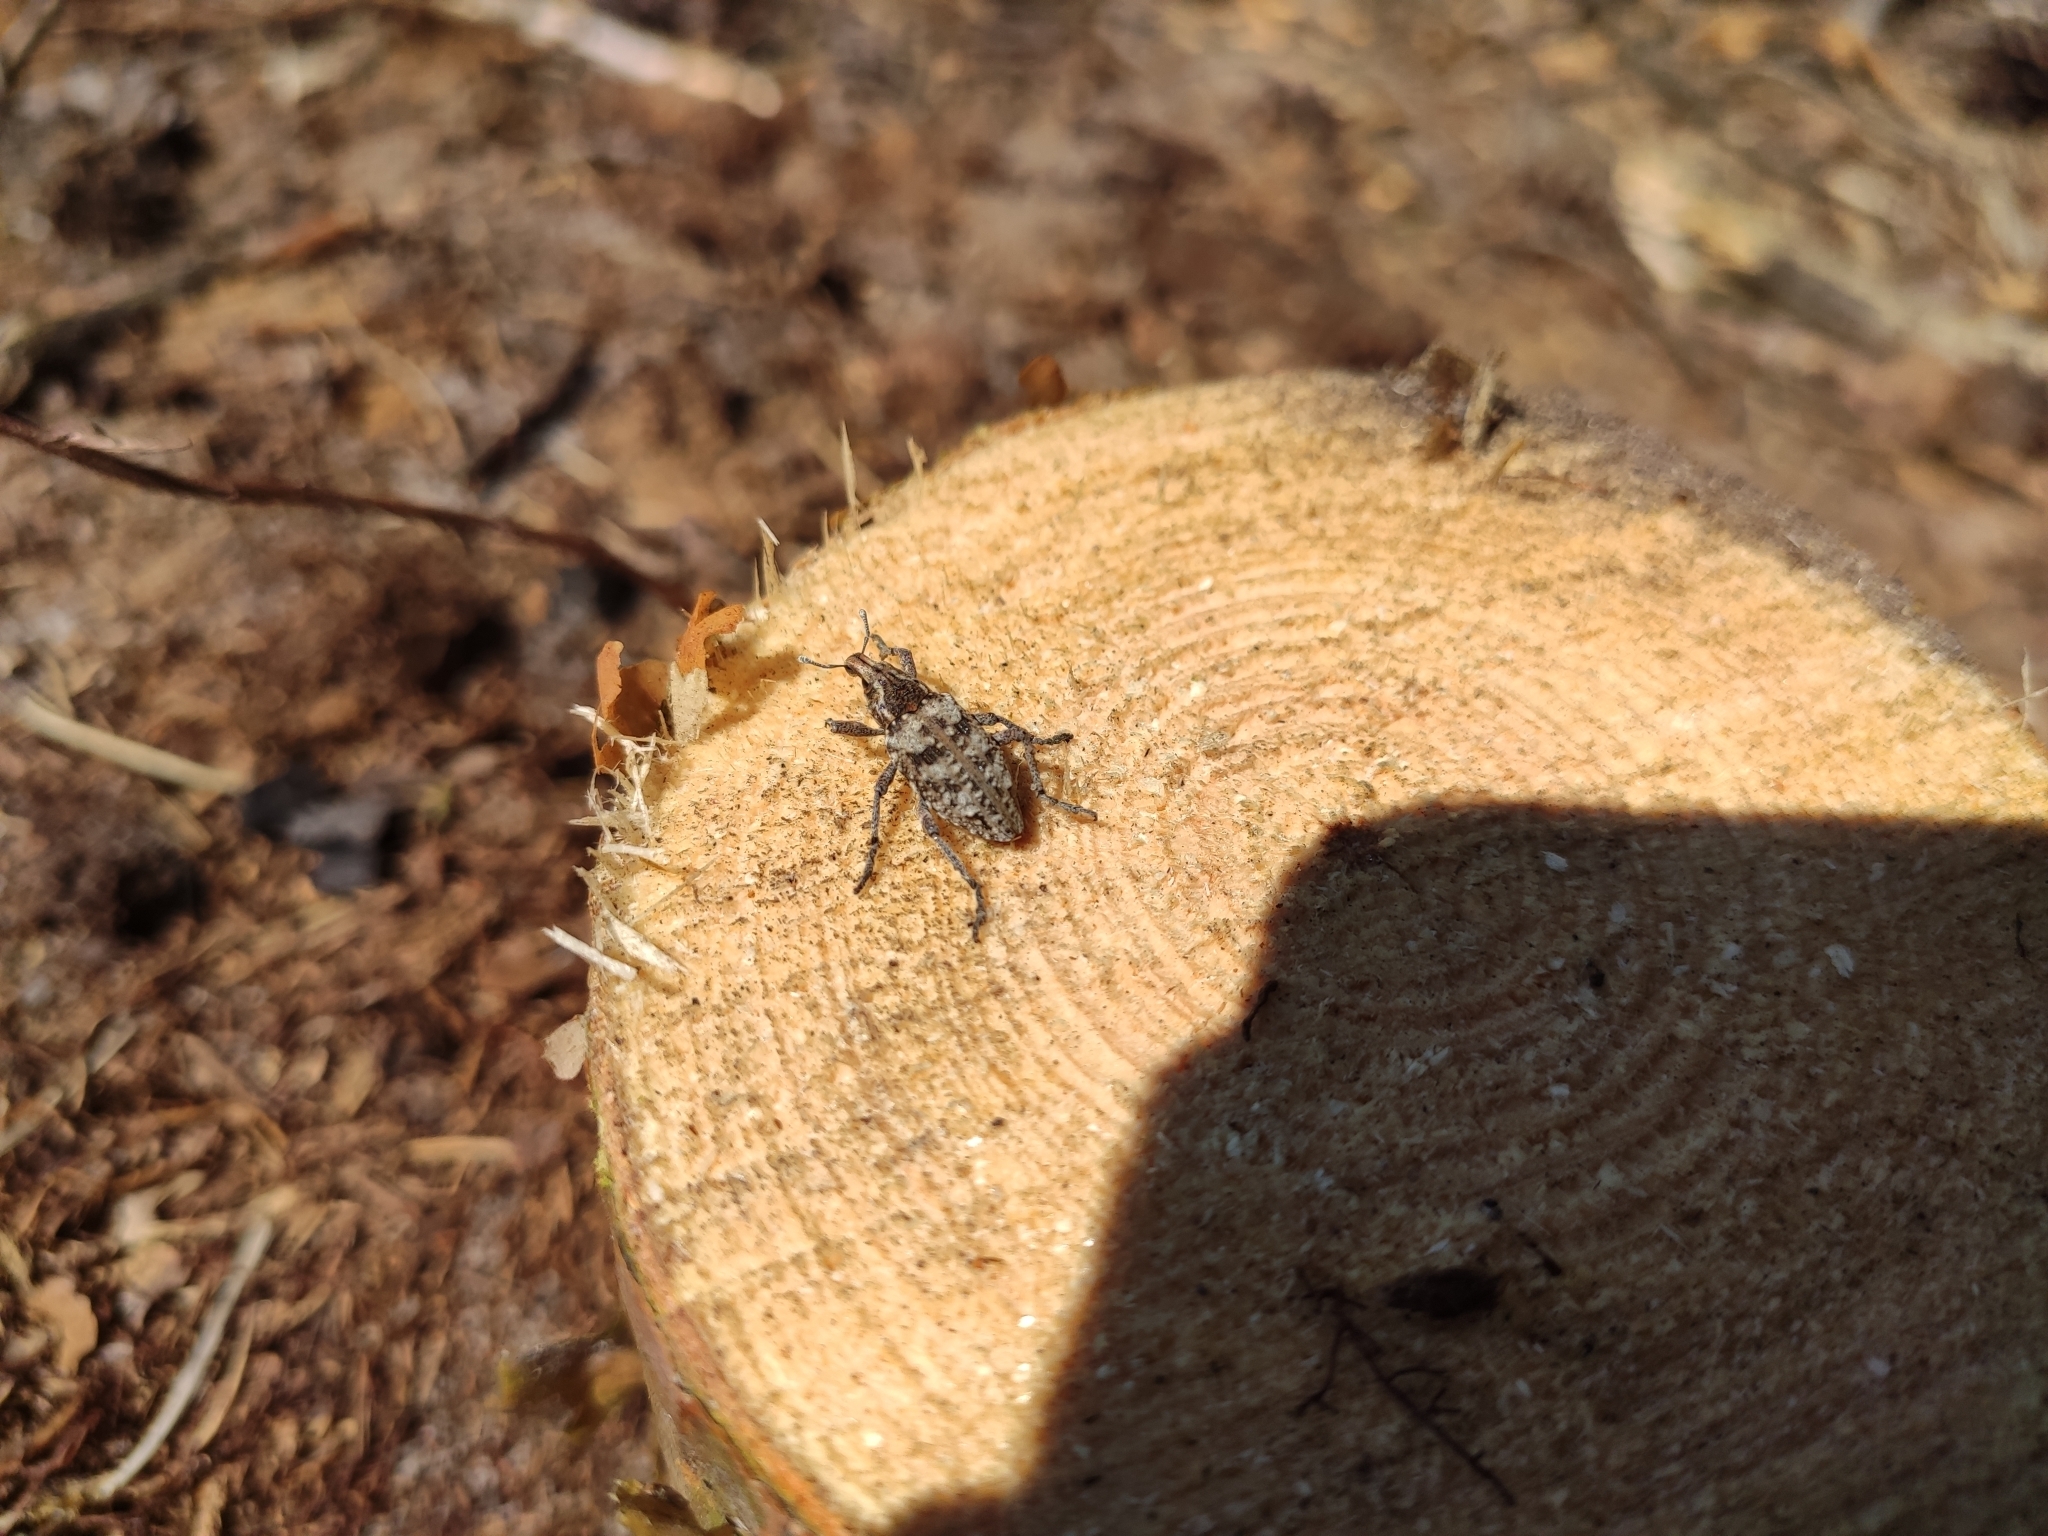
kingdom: Animalia
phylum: Arthropoda
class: Insecta
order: Coleoptera
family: Curculionidae
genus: Coniocleonus
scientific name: Coniocleonus turbatus
